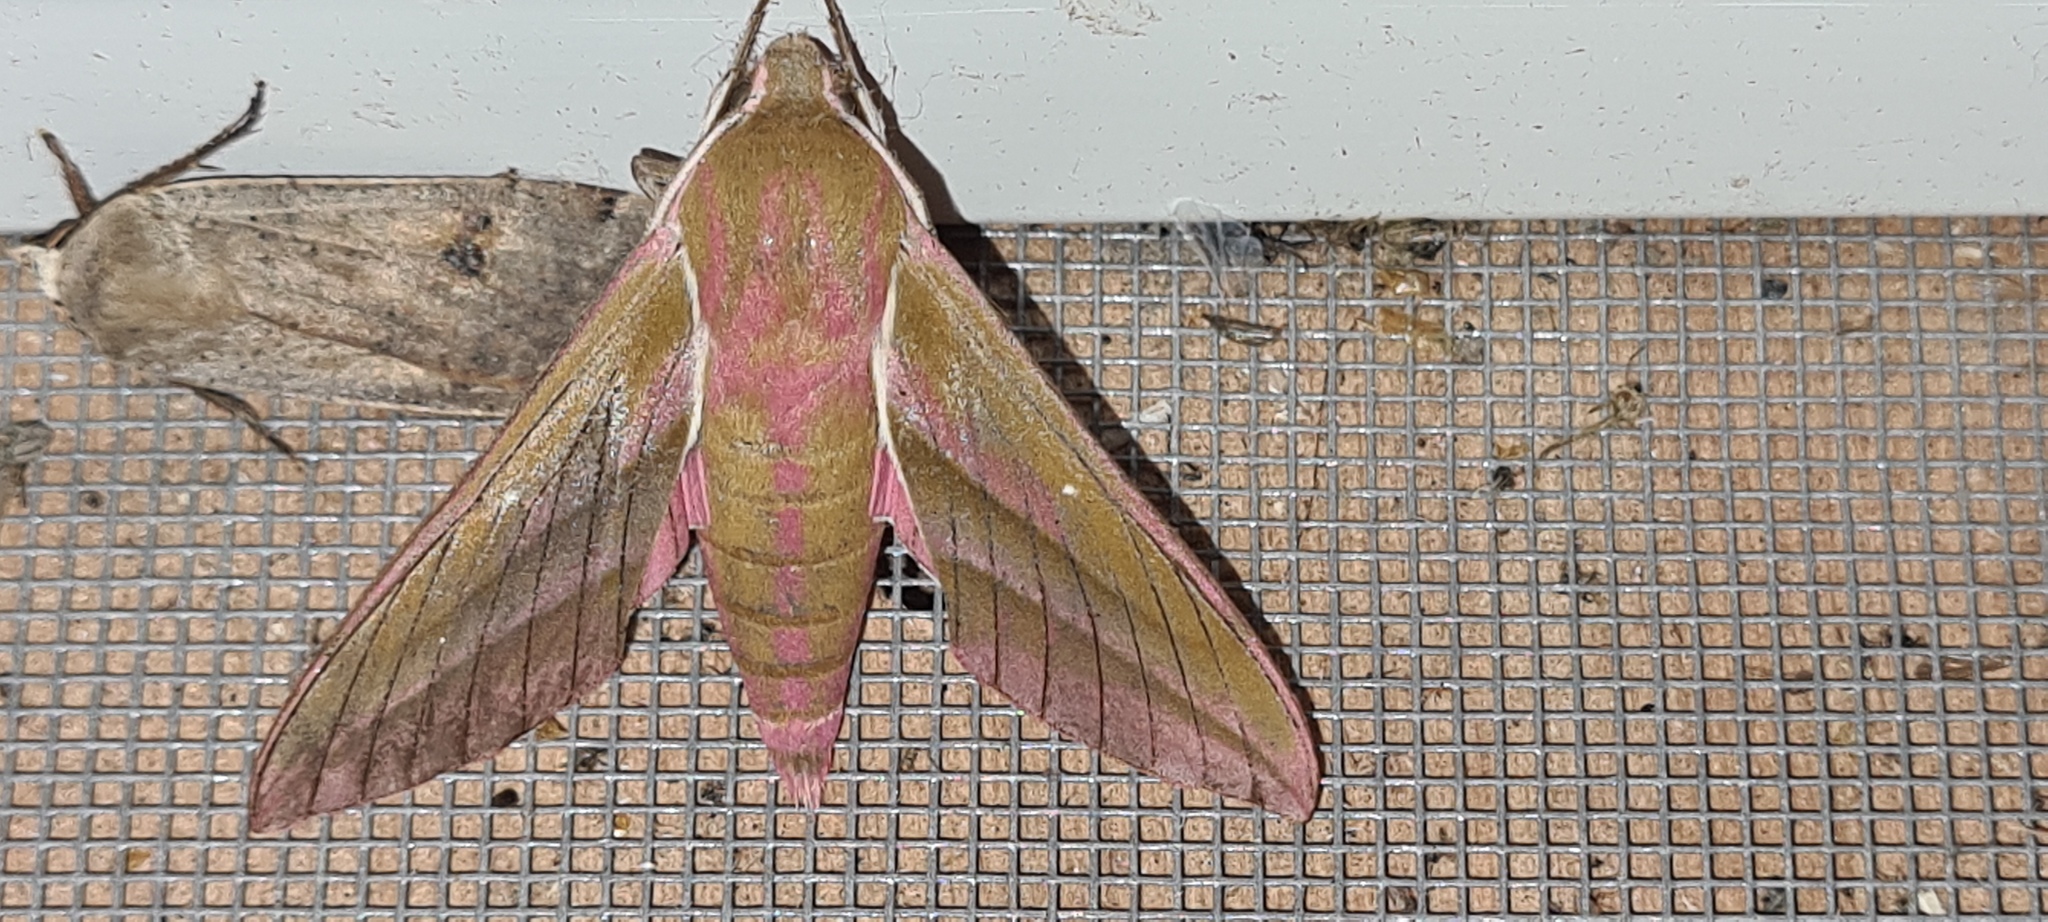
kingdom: Animalia
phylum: Arthropoda
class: Insecta
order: Lepidoptera
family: Sphingidae
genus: Deilephila
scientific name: Deilephila elpenor
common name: Elephant hawk-moth
